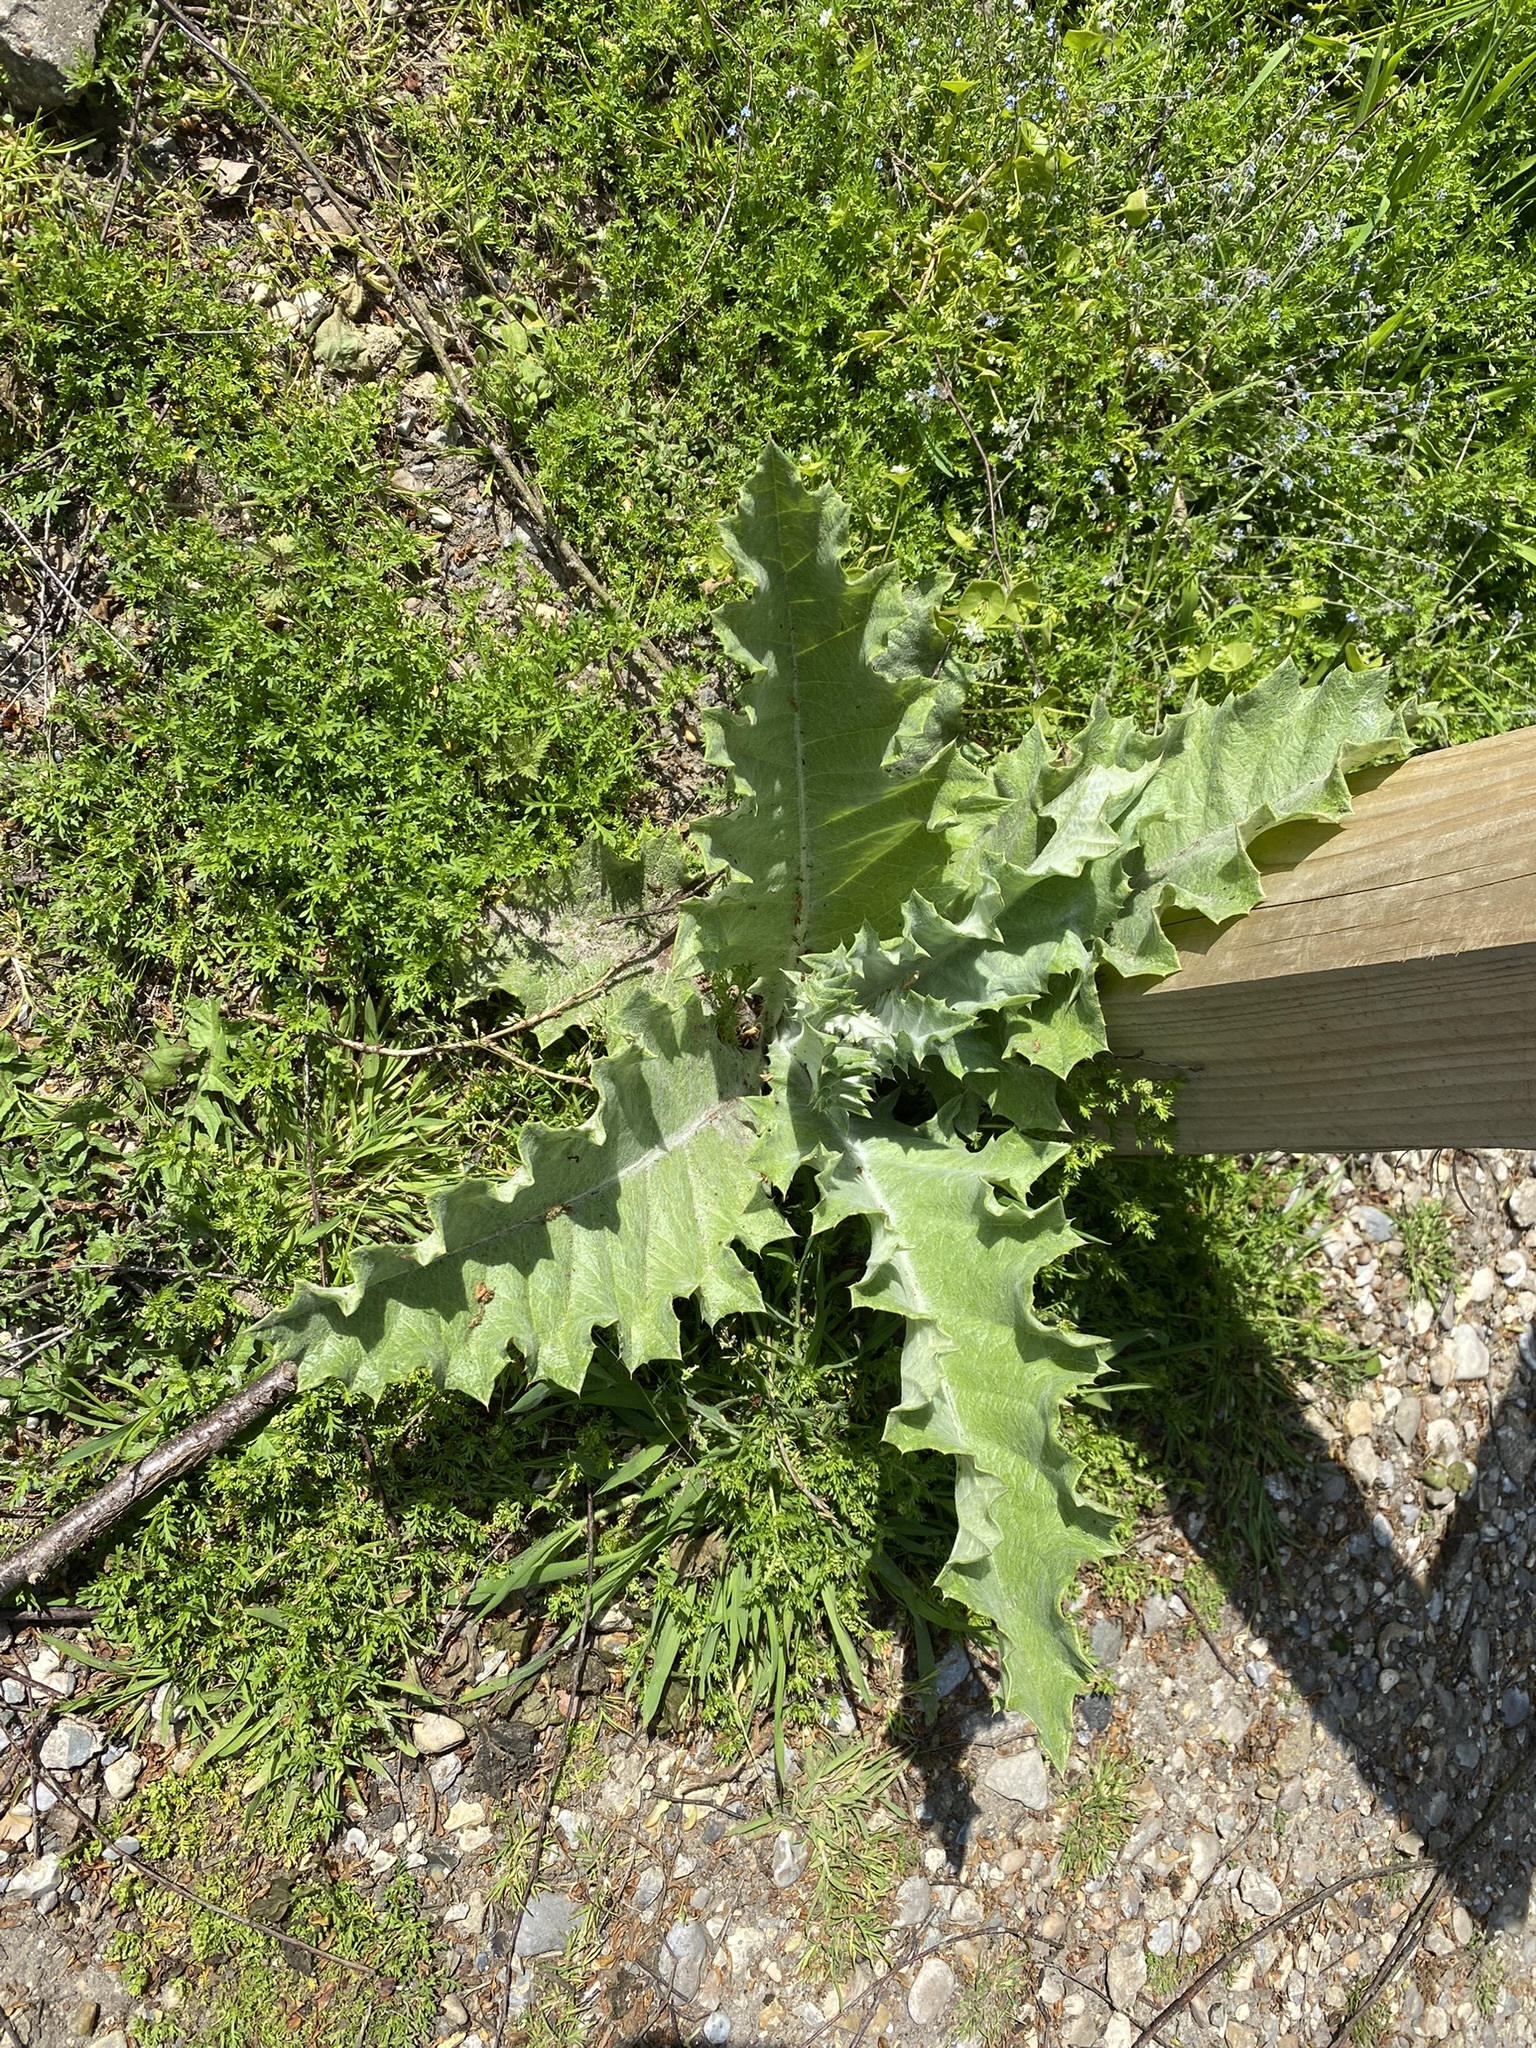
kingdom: Plantae
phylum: Tracheophyta
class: Magnoliopsida
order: Asterales
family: Asteraceae
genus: Onopordum
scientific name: Onopordum acanthium
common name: Scotch thistle
